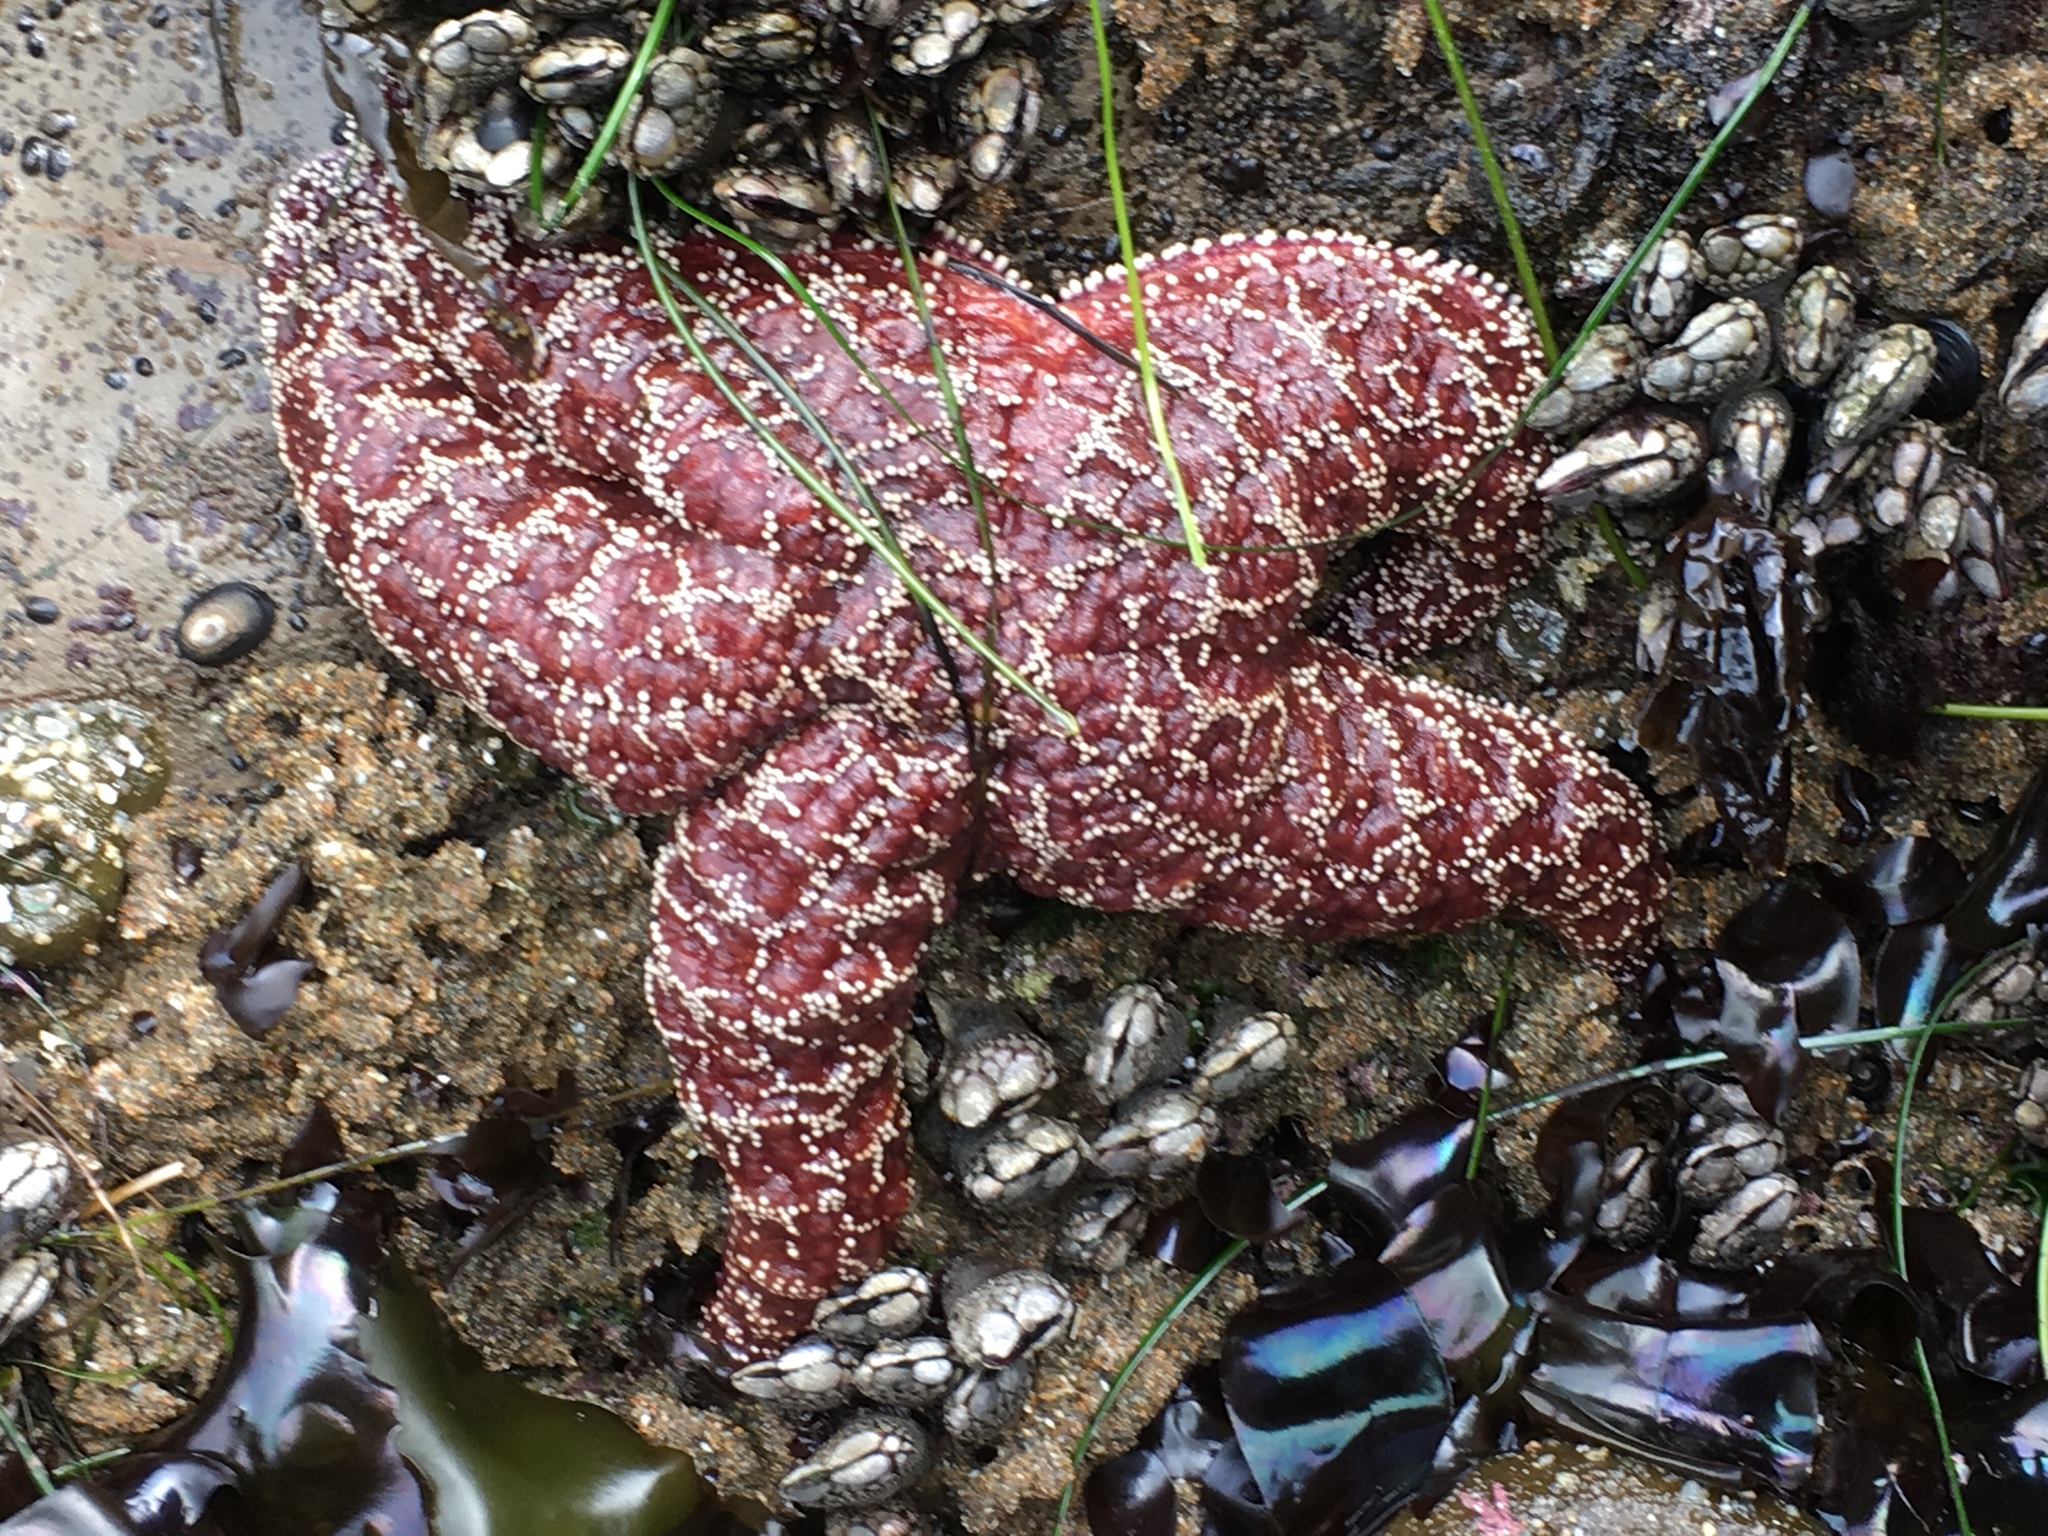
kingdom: Animalia
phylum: Echinodermata
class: Asteroidea
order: Forcipulatida
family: Asteriidae
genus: Pisaster
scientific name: Pisaster ochraceus
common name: Ochre stars
